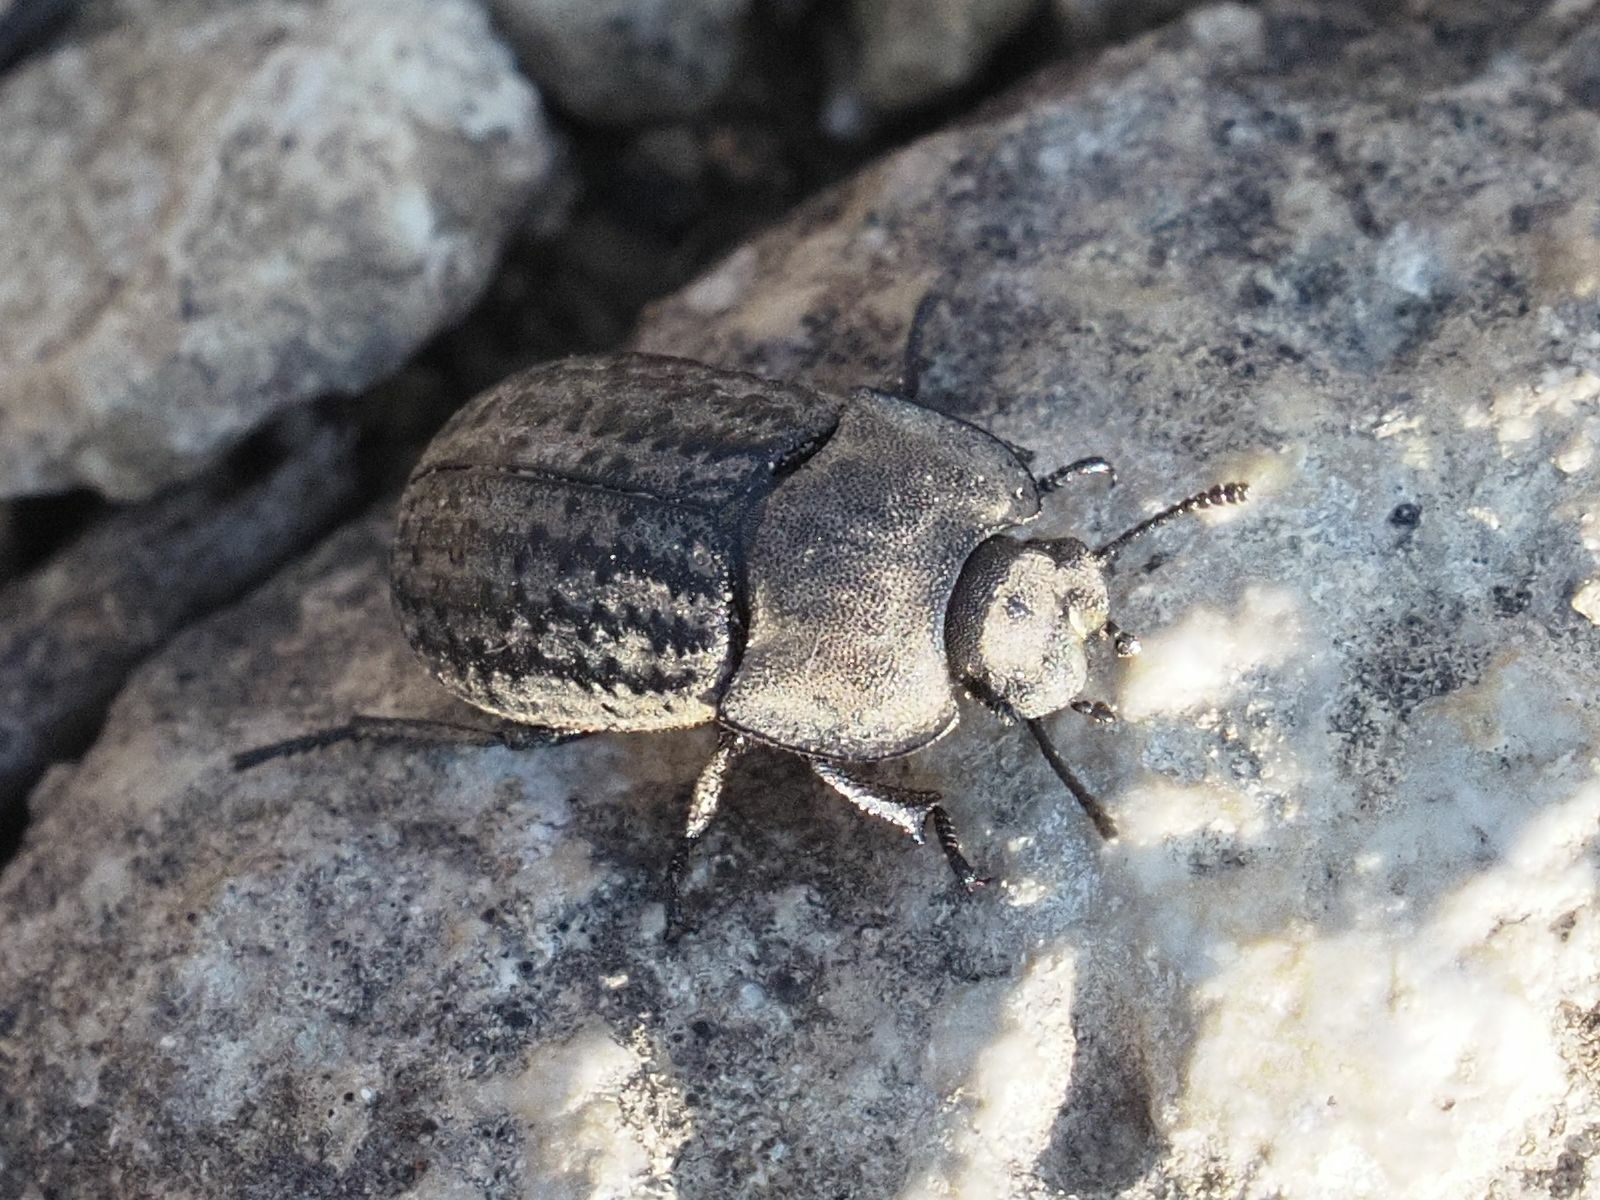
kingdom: Animalia
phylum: Arthropoda
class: Insecta
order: Coleoptera
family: Tenebrionidae
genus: Opatrum
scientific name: Opatrum sabulosum
